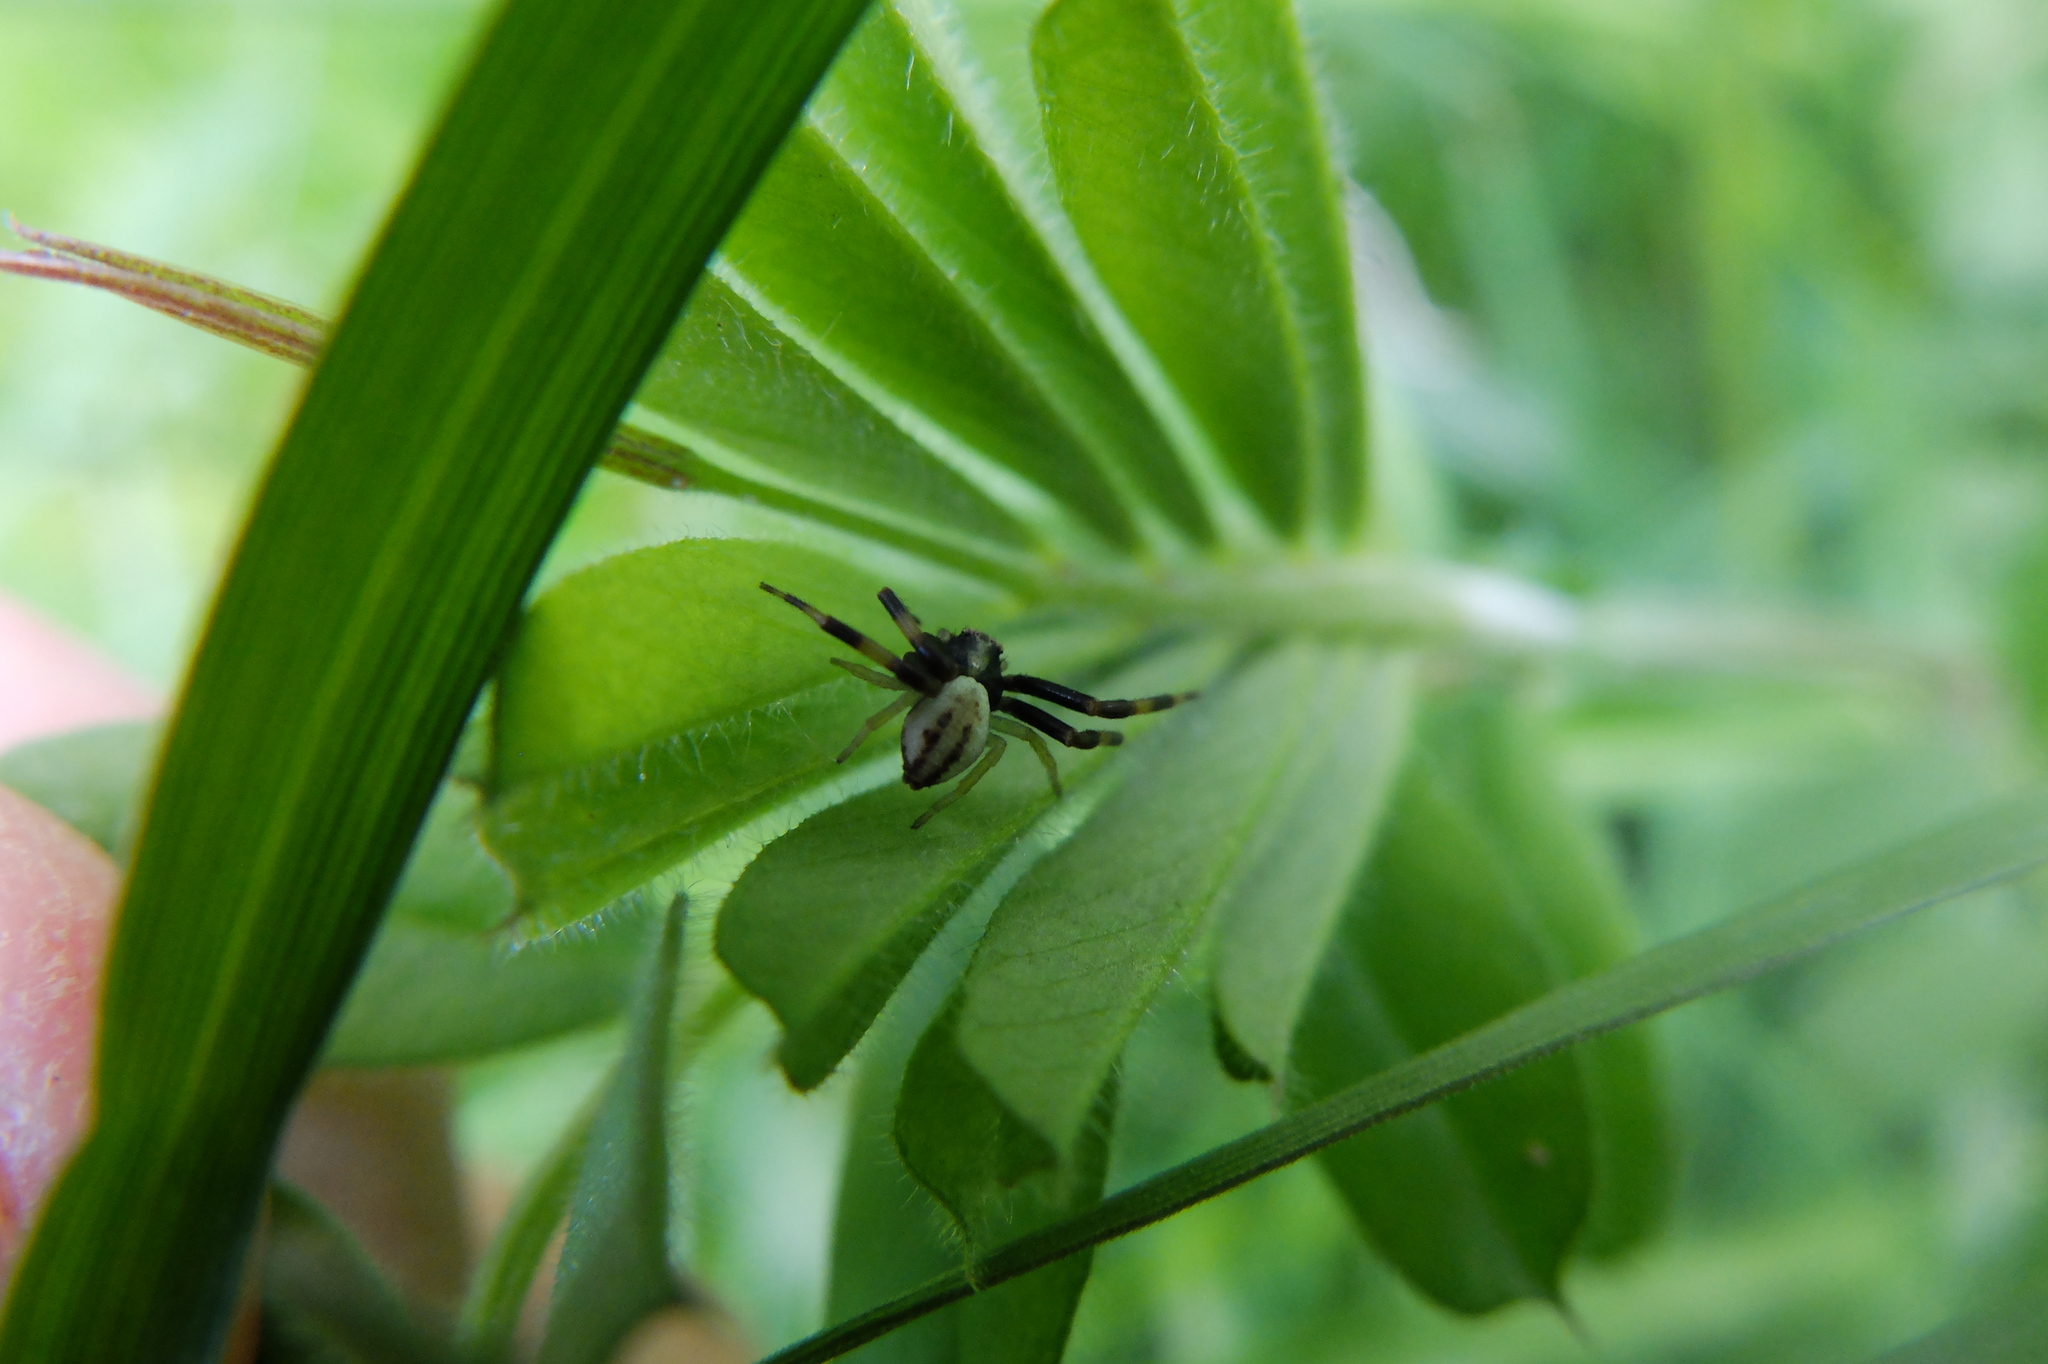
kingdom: Animalia
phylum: Arthropoda
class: Arachnida
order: Araneae
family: Thomisidae
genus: Misumena
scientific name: Misumena vatia
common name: Goldenrod crab spider
